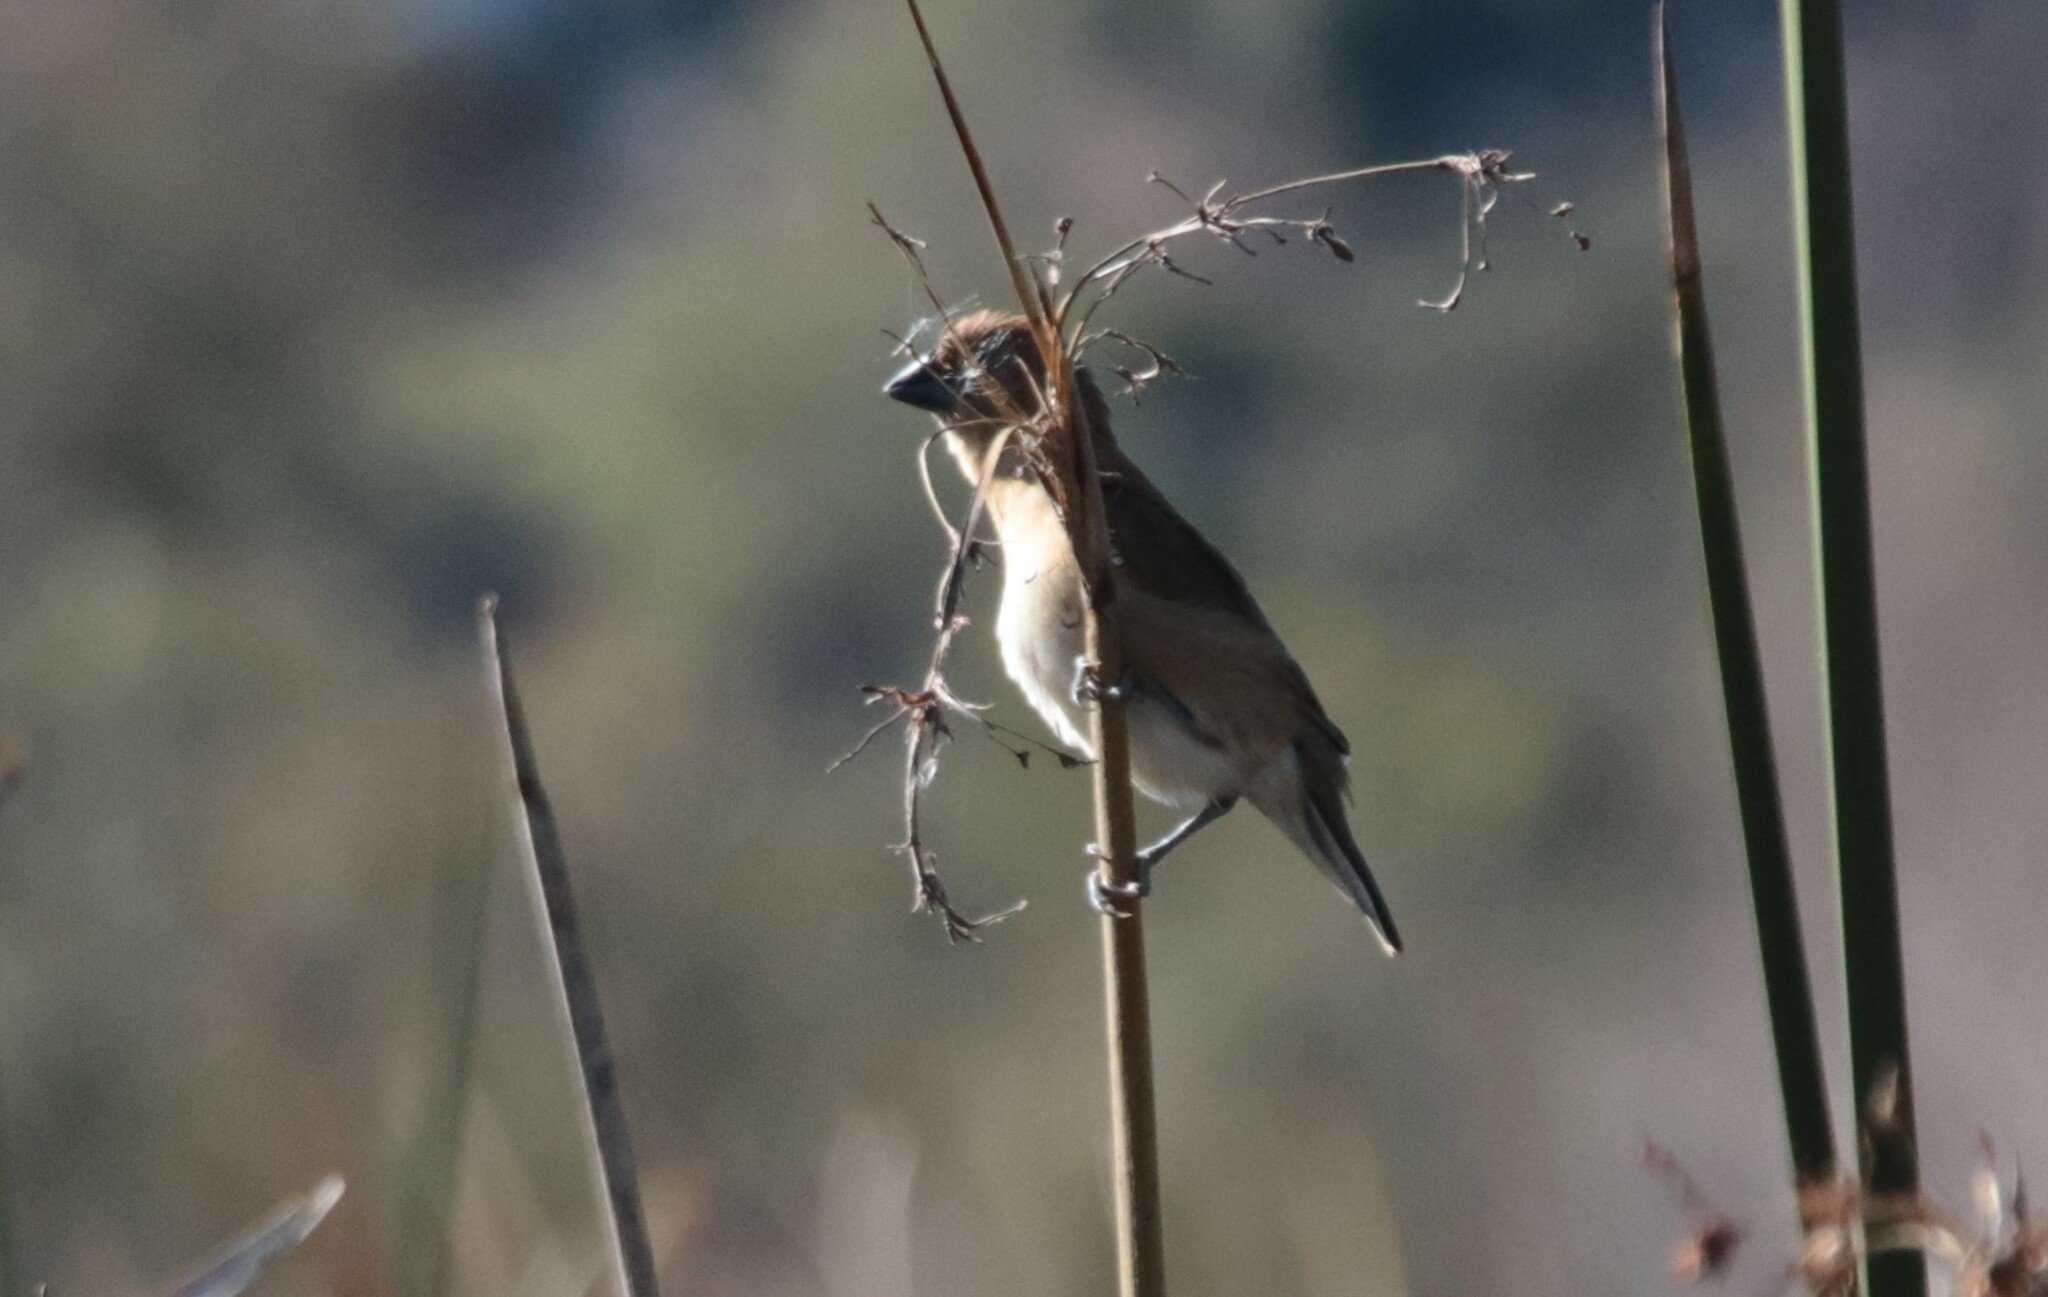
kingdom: Animalia
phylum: Chordata
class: Aves
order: Passeriformes
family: Estrildidae
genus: Lonchura
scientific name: Lonchura punctulata
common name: Scaly-breasted munia
